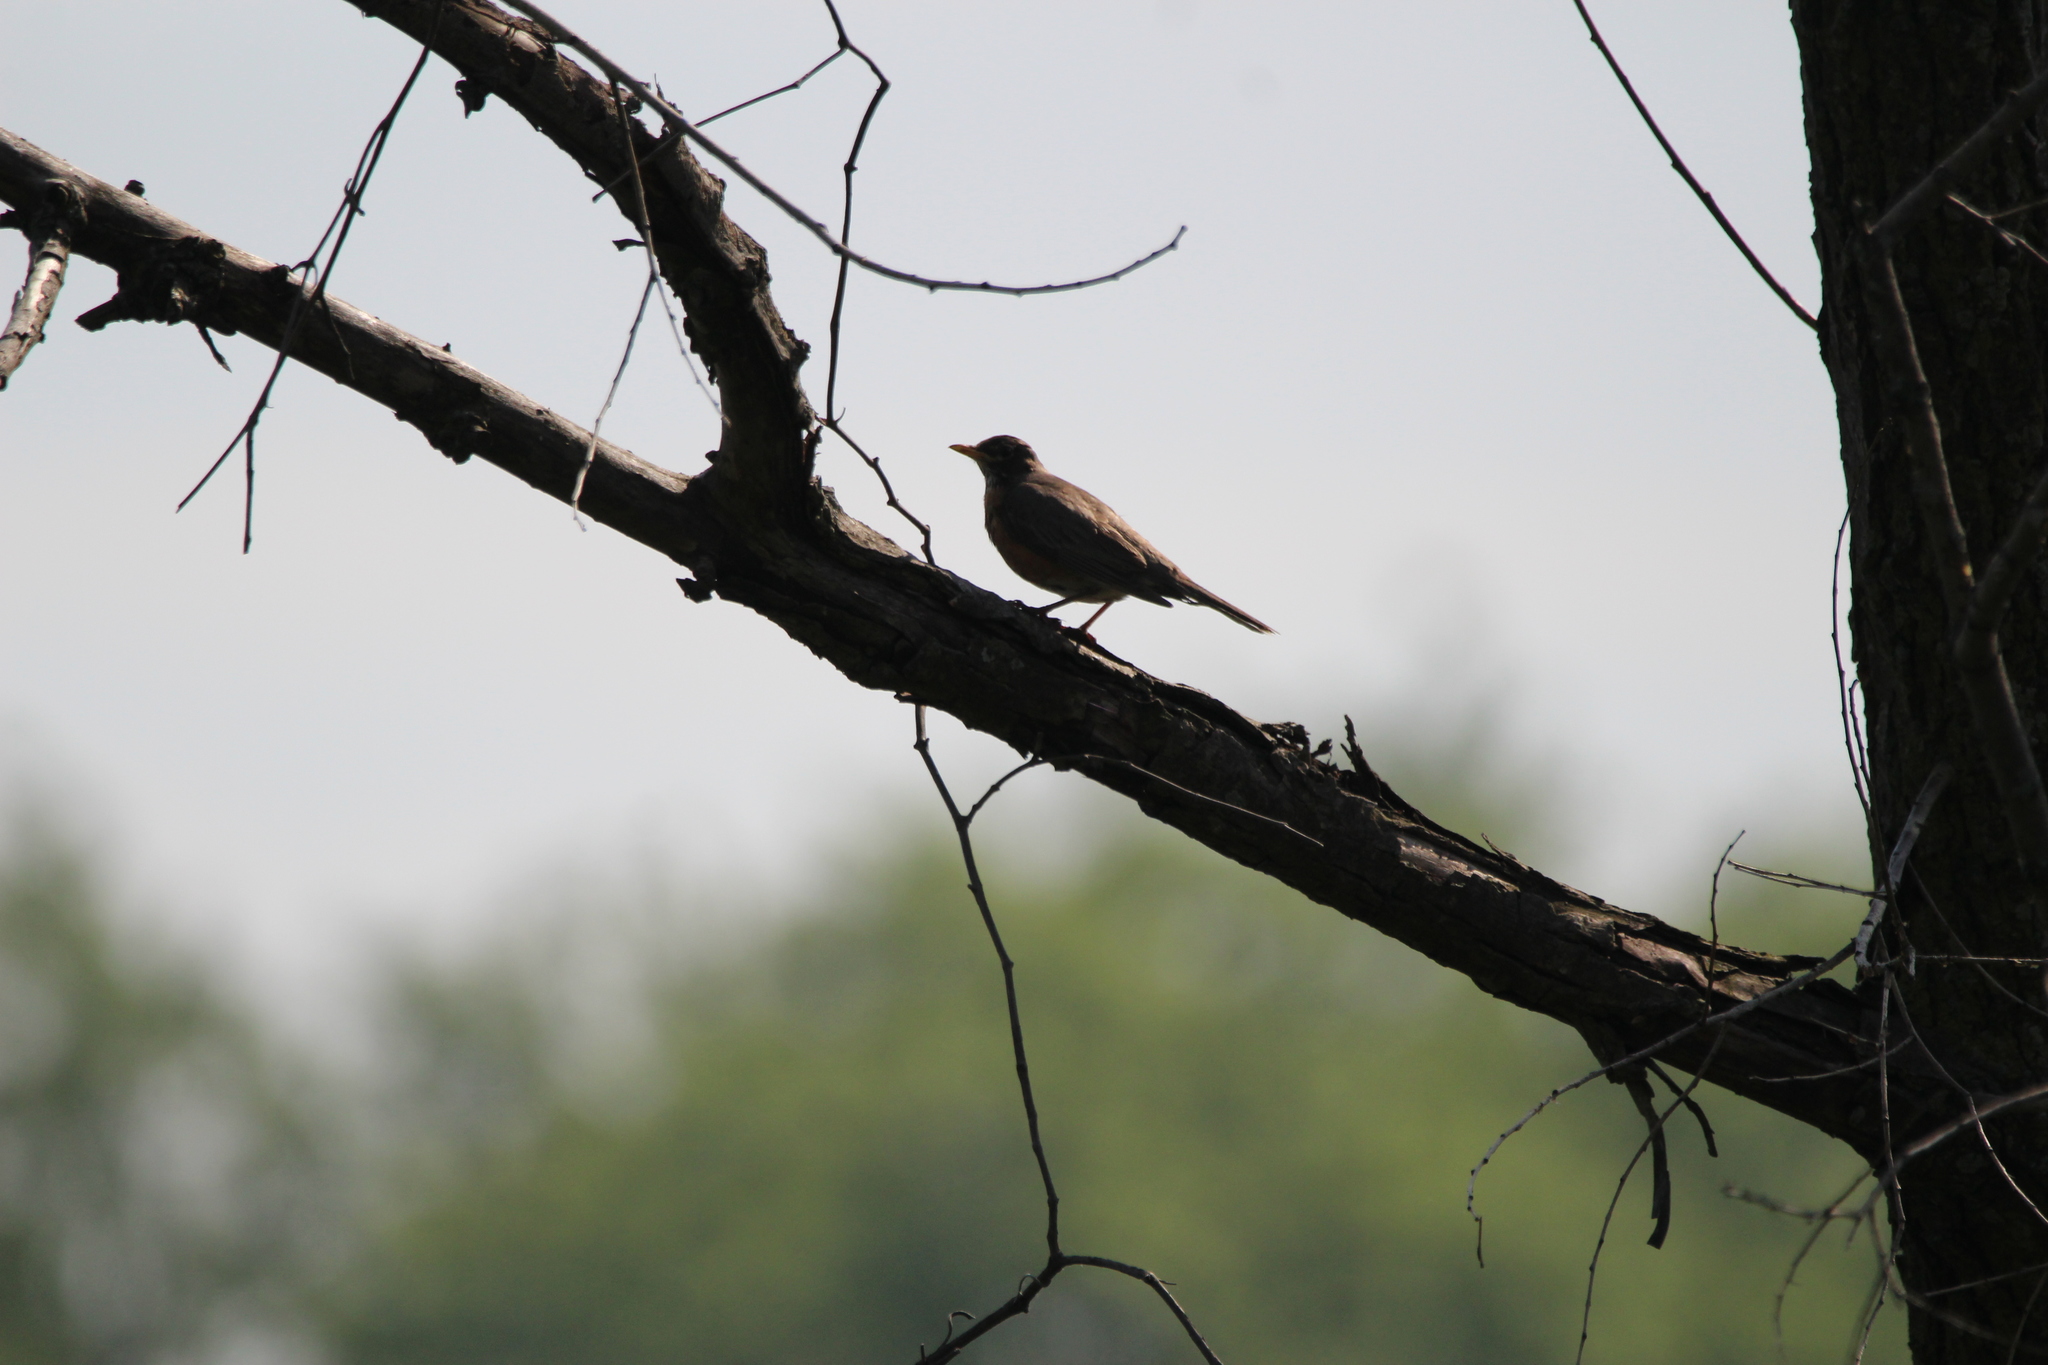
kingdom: Animalia
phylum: Chordata
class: Aves
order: Passeriformes
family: Turdidae
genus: Turdus
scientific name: Turdus migratorius
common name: American robin
